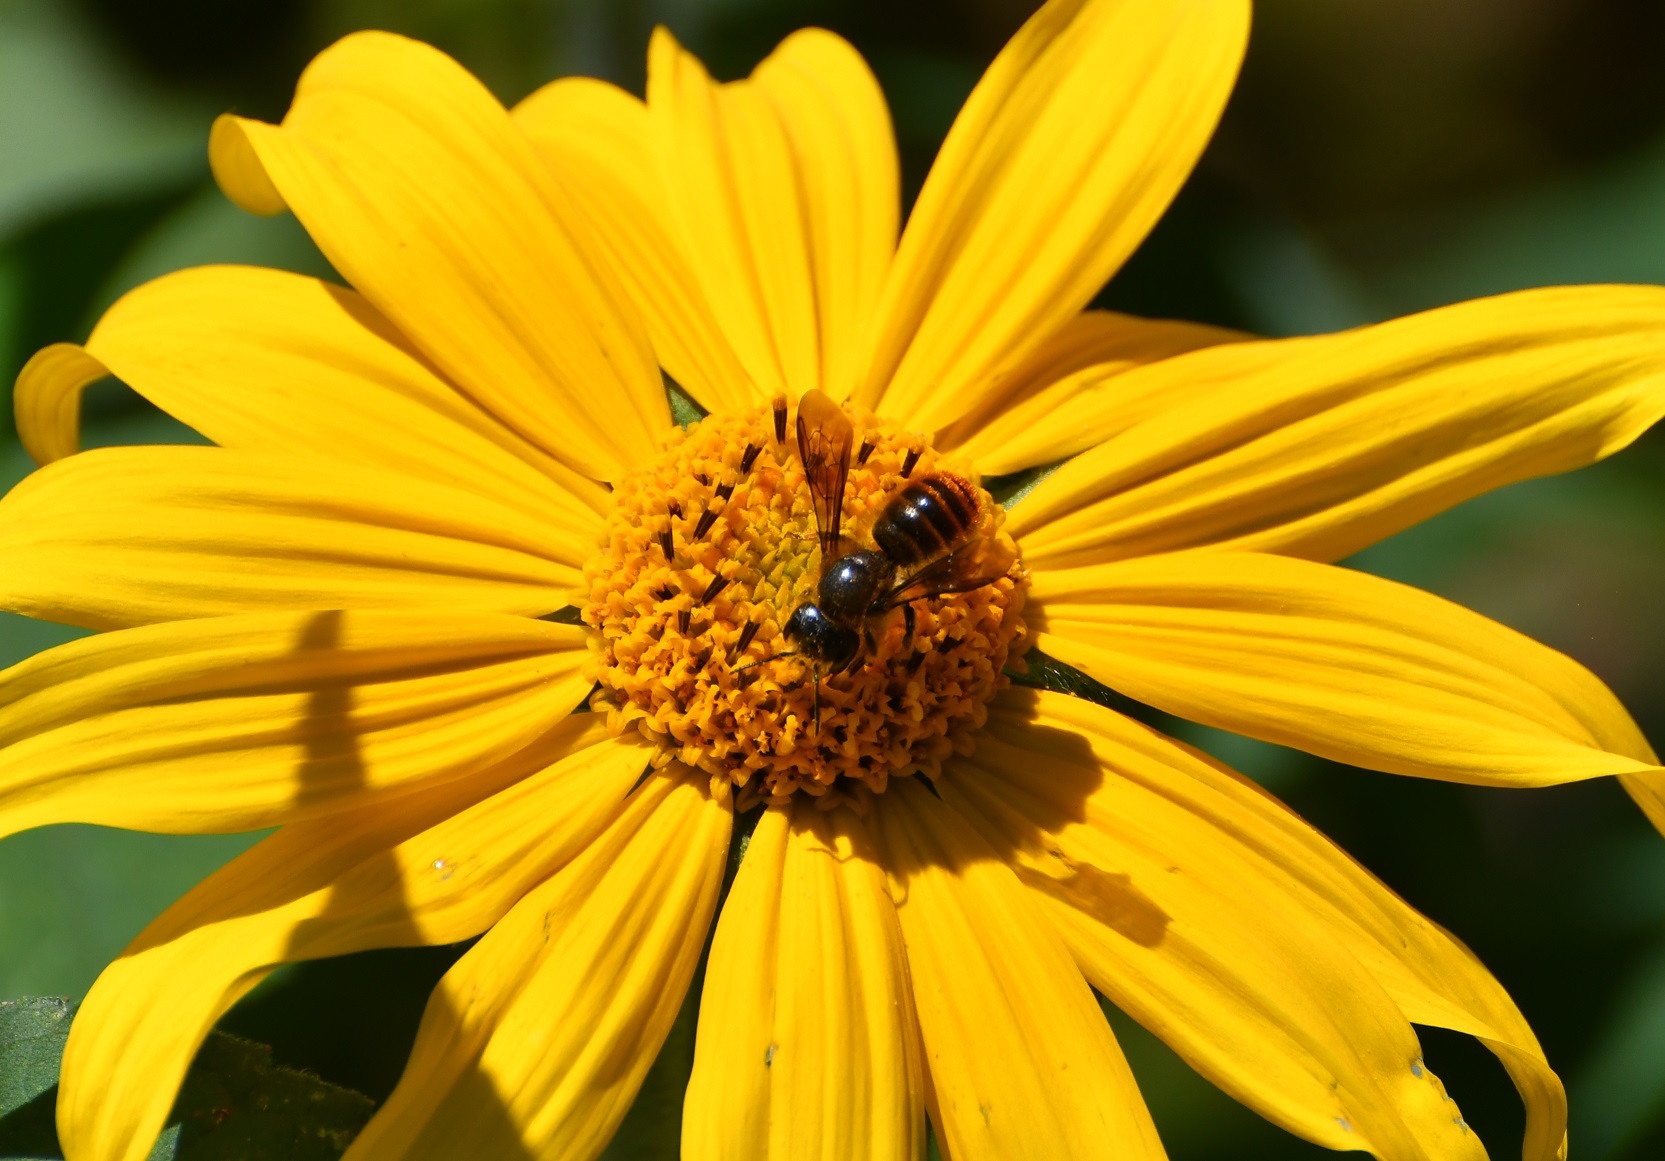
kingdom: Animalia
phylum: Arthropoda
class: Insecta
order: Hymenoptera
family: Megachilidae
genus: Osmia
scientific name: Osmia azteca
